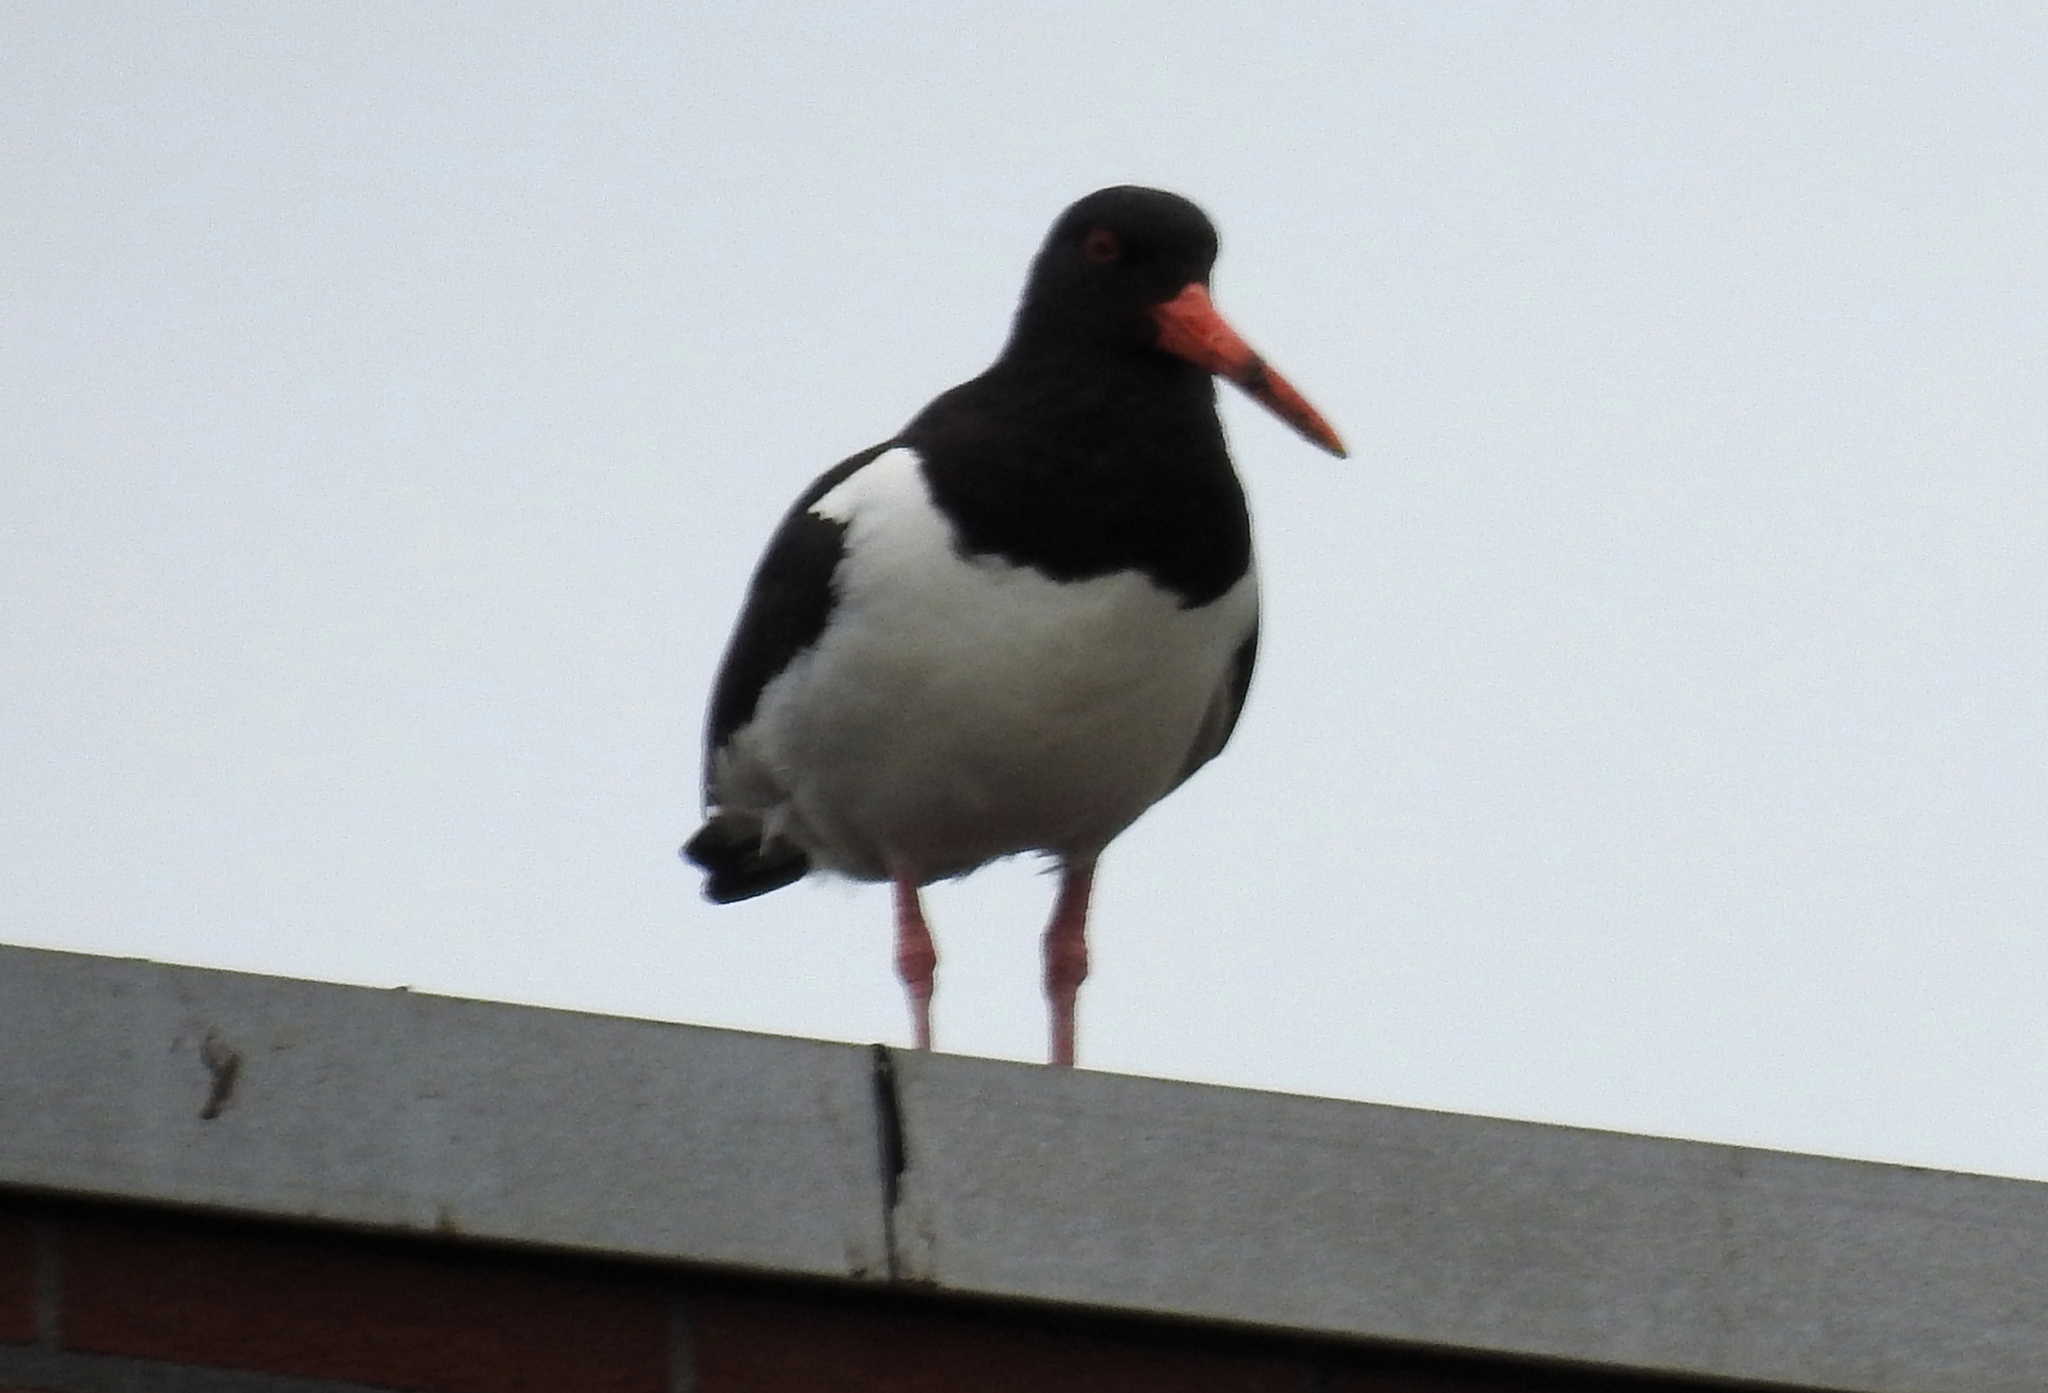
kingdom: Animalia
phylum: Chordata
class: Aves
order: Charadriiformes
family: Haematopodidae
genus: Haematopus
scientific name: Haematopus ostralegus
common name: Eurasian oystercatcher
